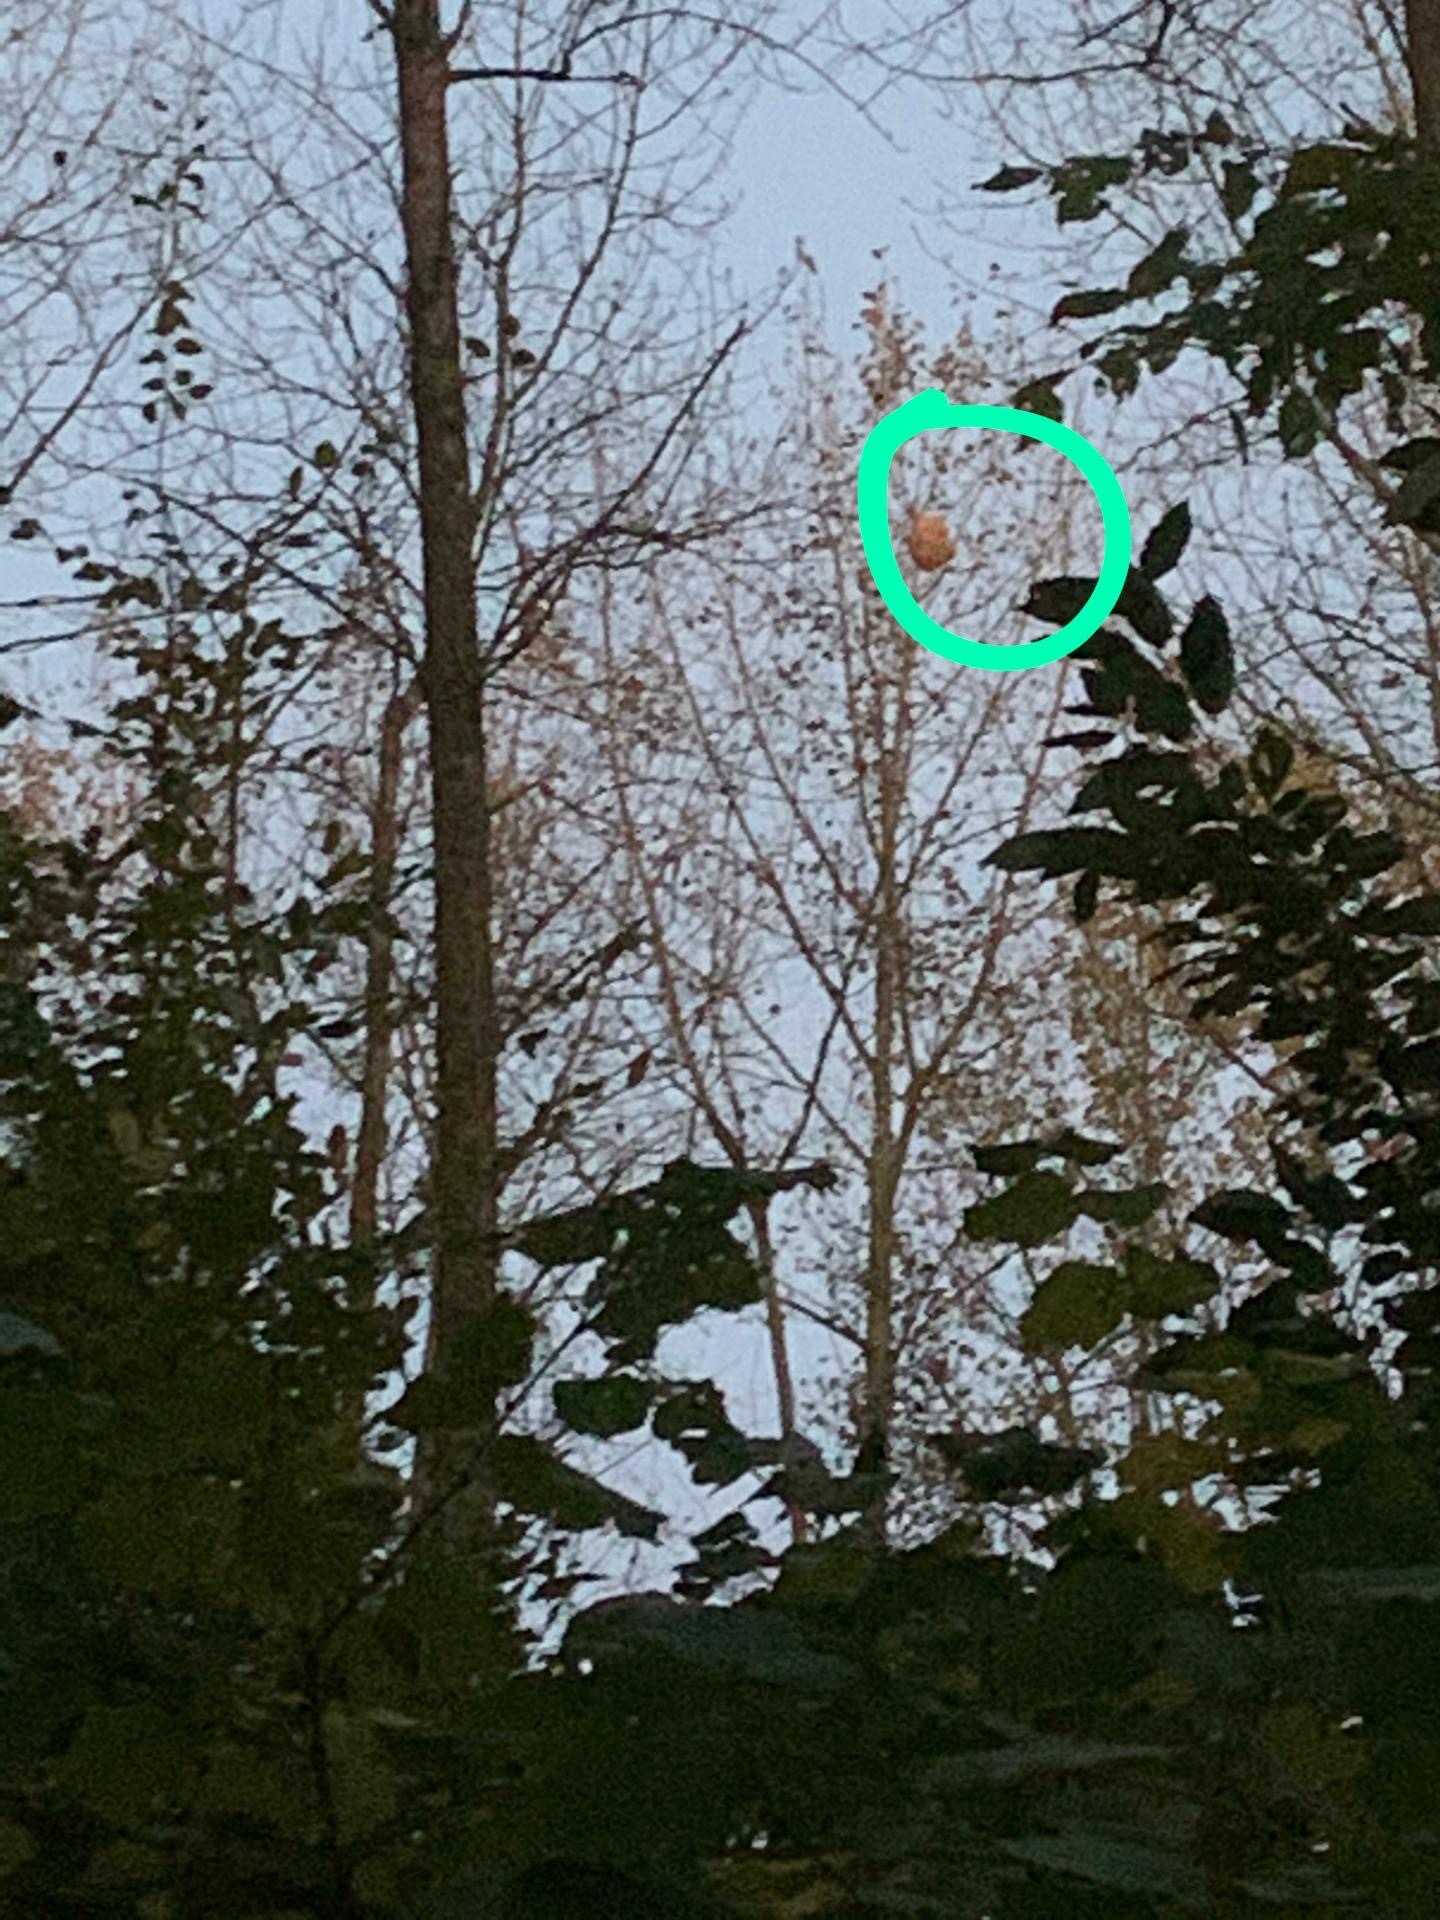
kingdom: Animalia
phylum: Arthropoda
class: Insecta
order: Hymenoptera
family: Vespidae
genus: Vespa
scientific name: Vespa velutina
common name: Asian hornet
